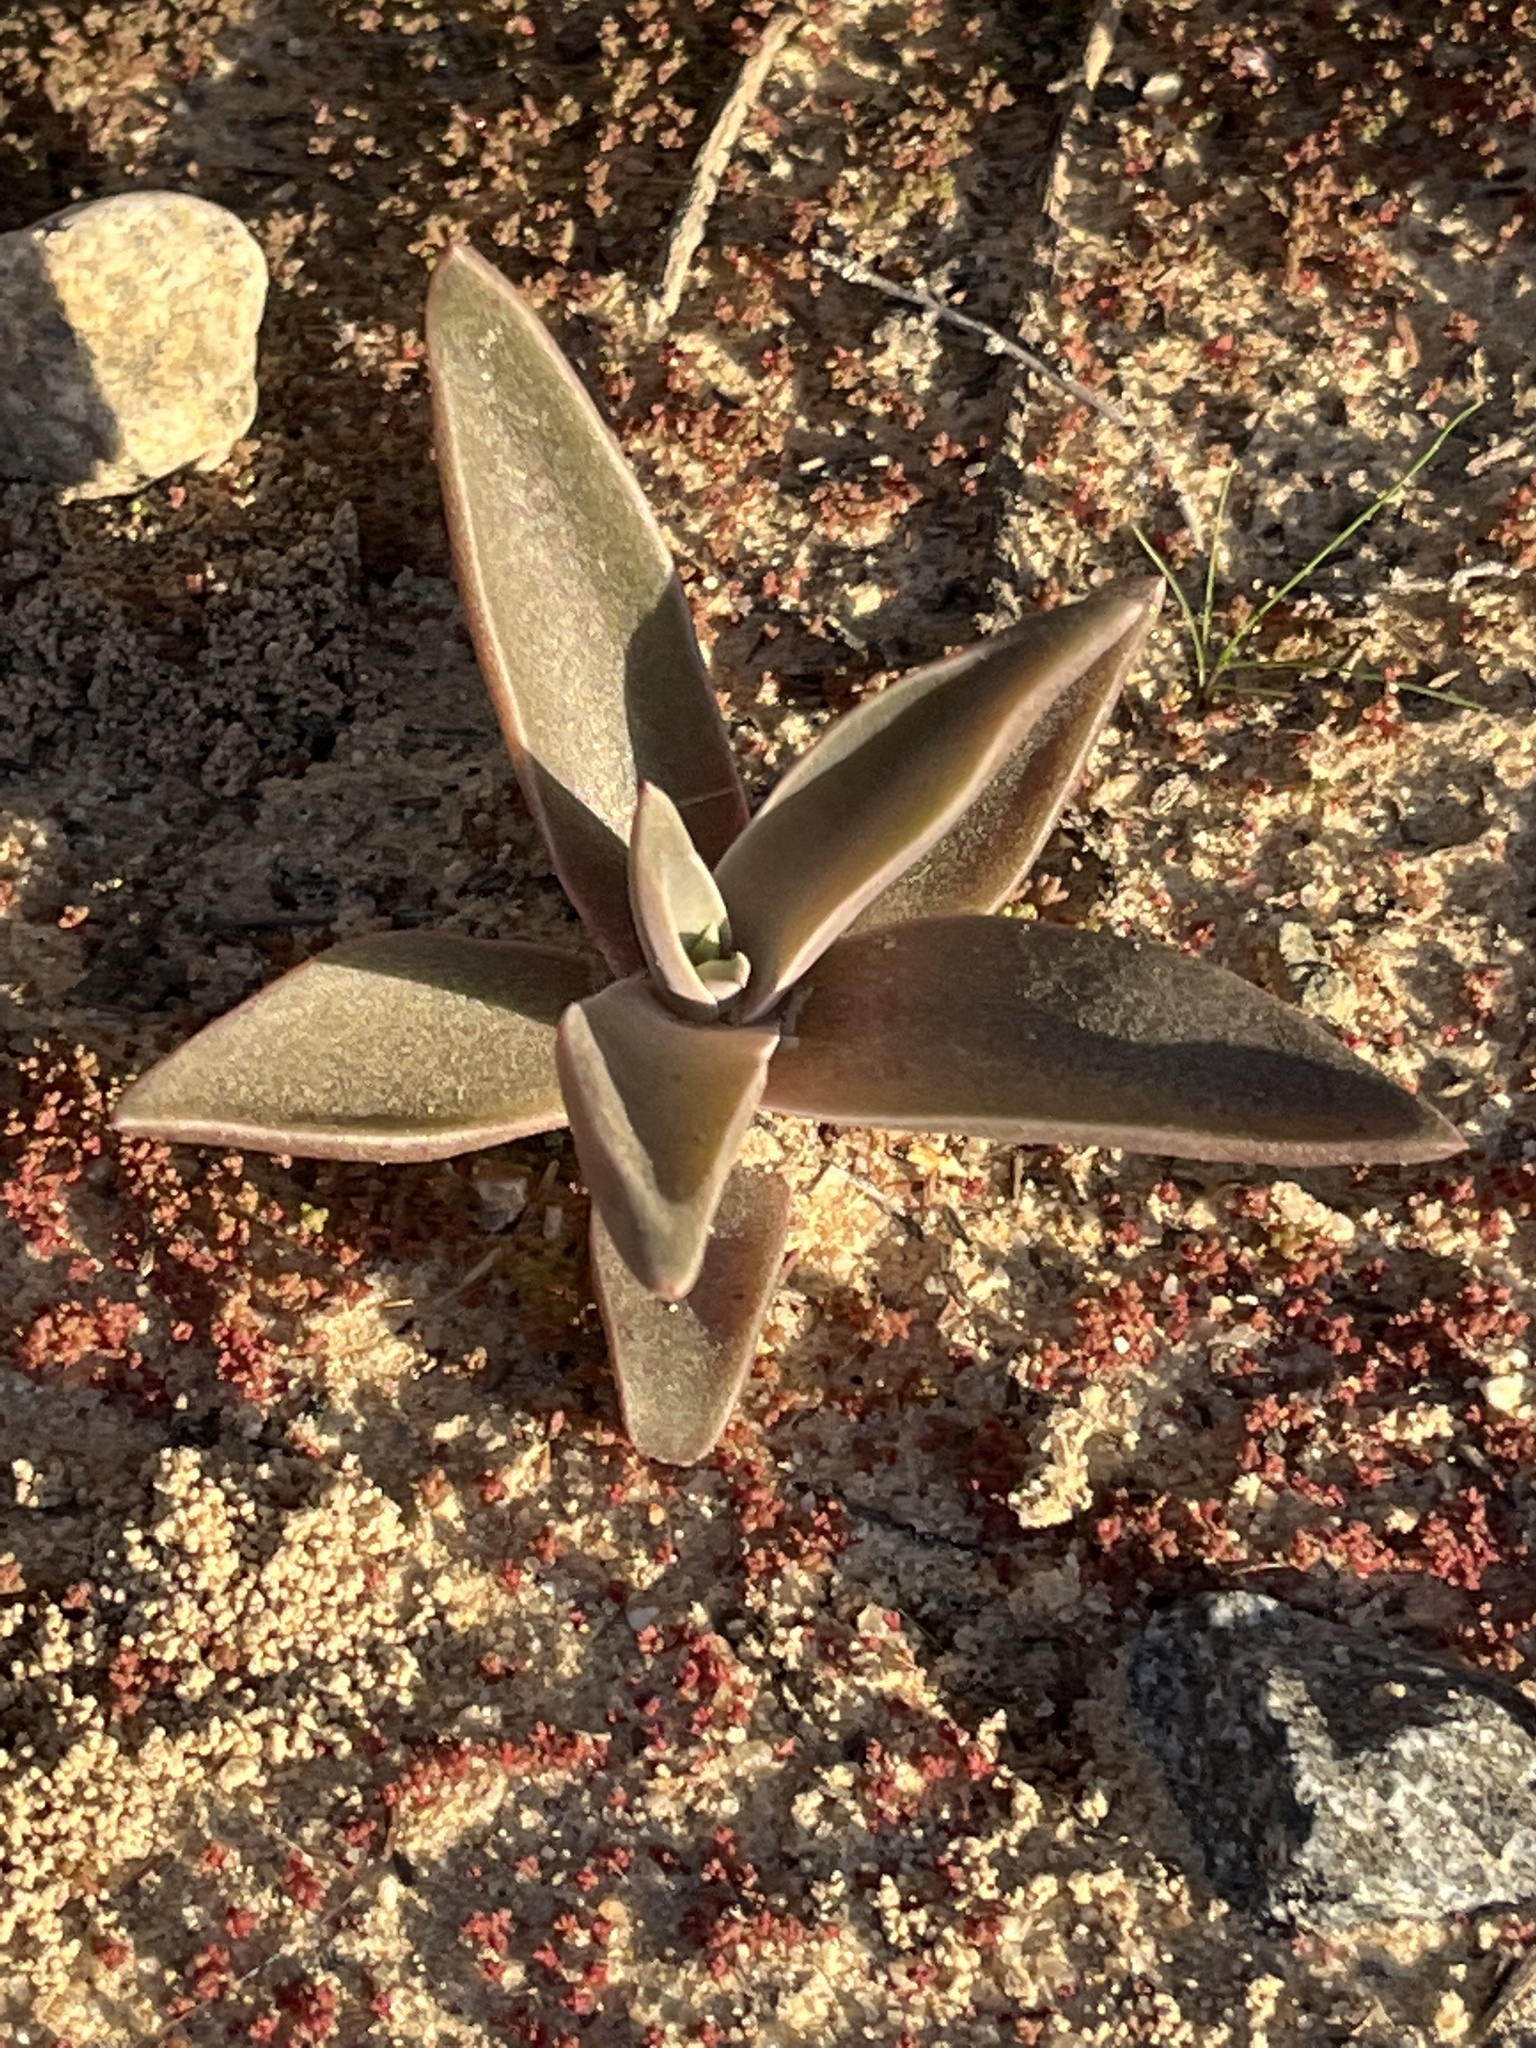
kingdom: Plantae
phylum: Tracheophyta
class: Magnoliopsida
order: Saxifragales
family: Crassulaceae
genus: Dudleya
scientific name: Dudleya lanceolata
